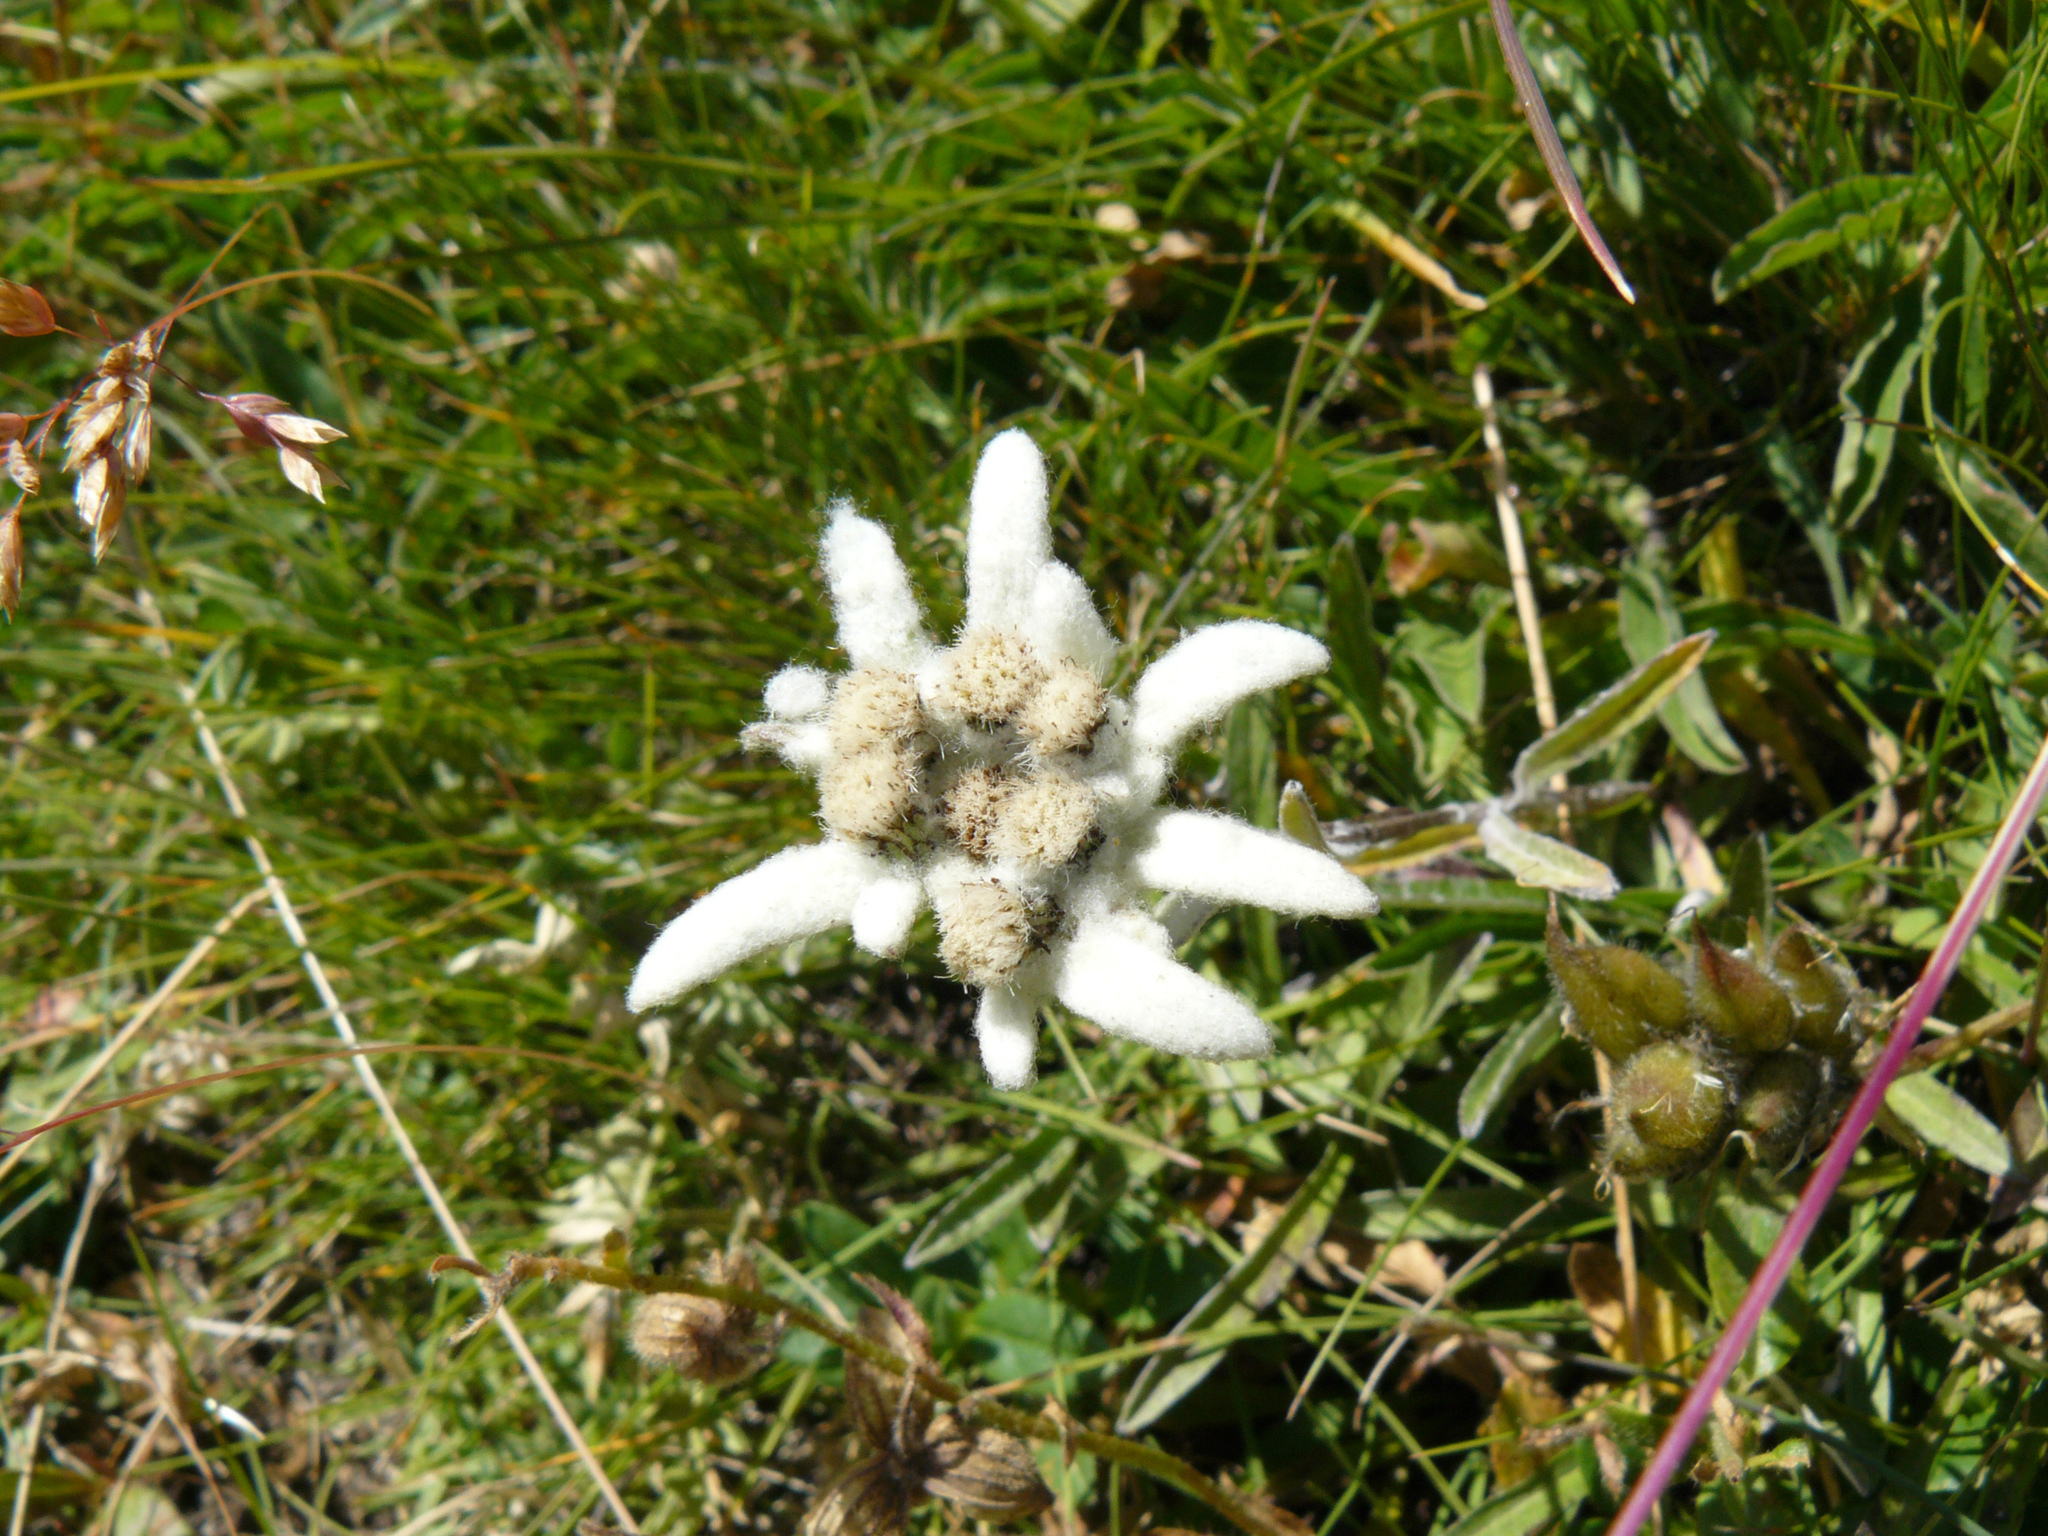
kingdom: Plantae
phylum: Tracheophyta
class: Magnoliopsida
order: Asterales
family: Asteraceae
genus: Leontopodium
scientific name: Leontopodium nivale
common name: Edelweiss
